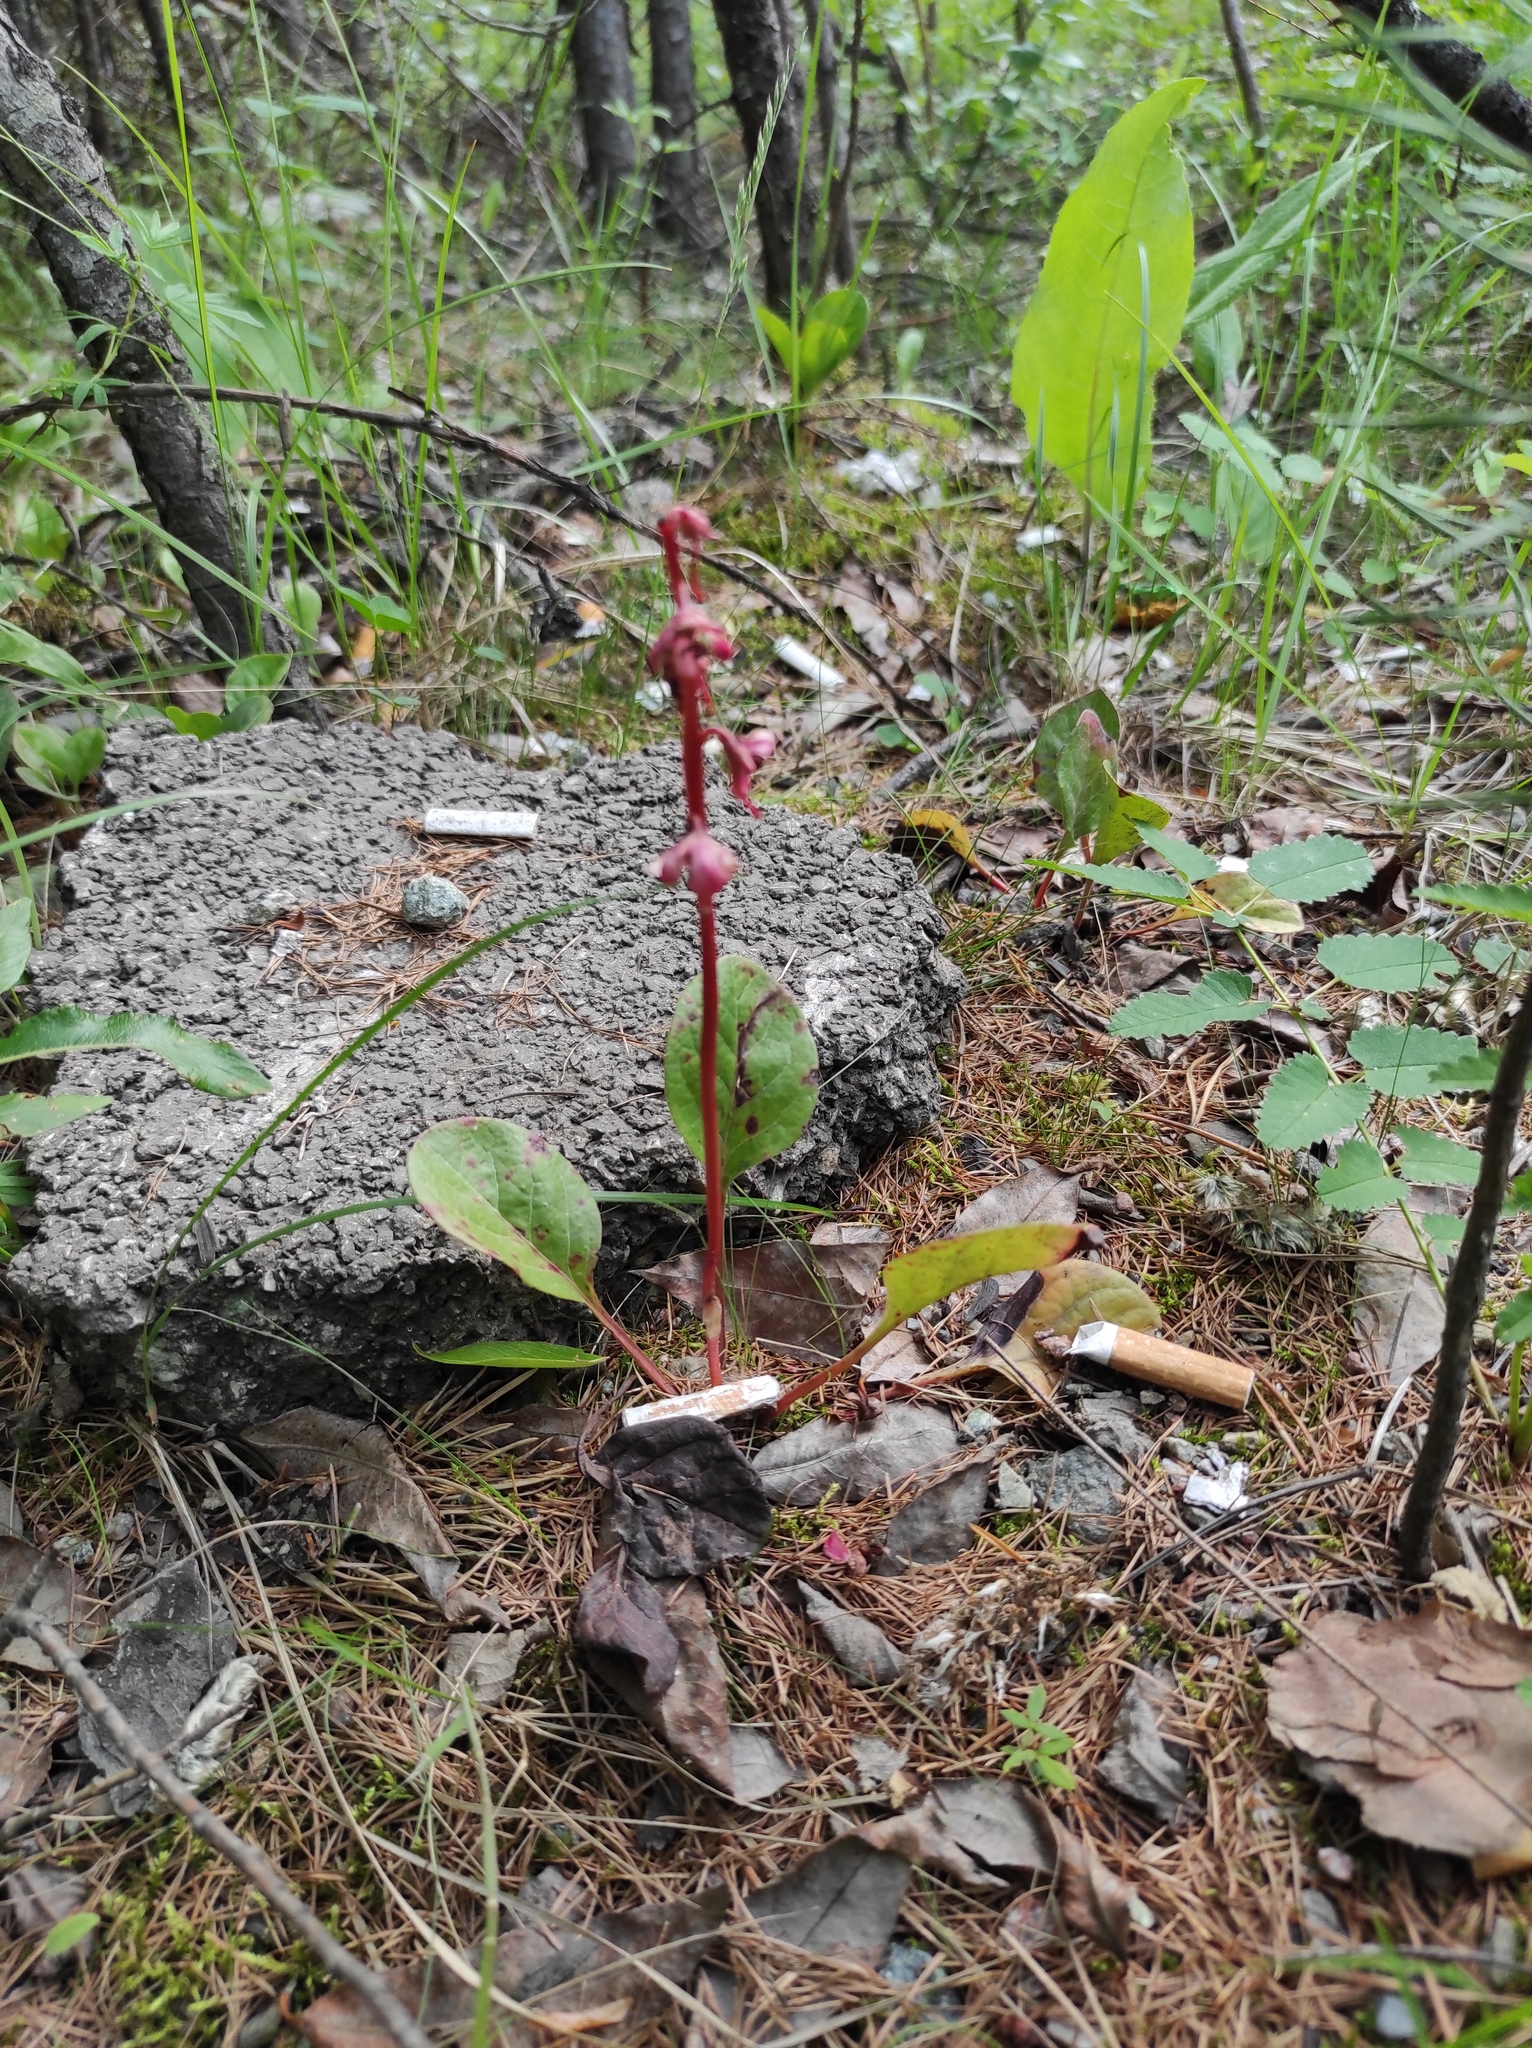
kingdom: Plantae
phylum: Tracheophyta
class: Magnoliopsida
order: Ericales
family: Ericaceae
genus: Pyrola
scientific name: Pyrola asarifolia
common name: Bog wintergreen
